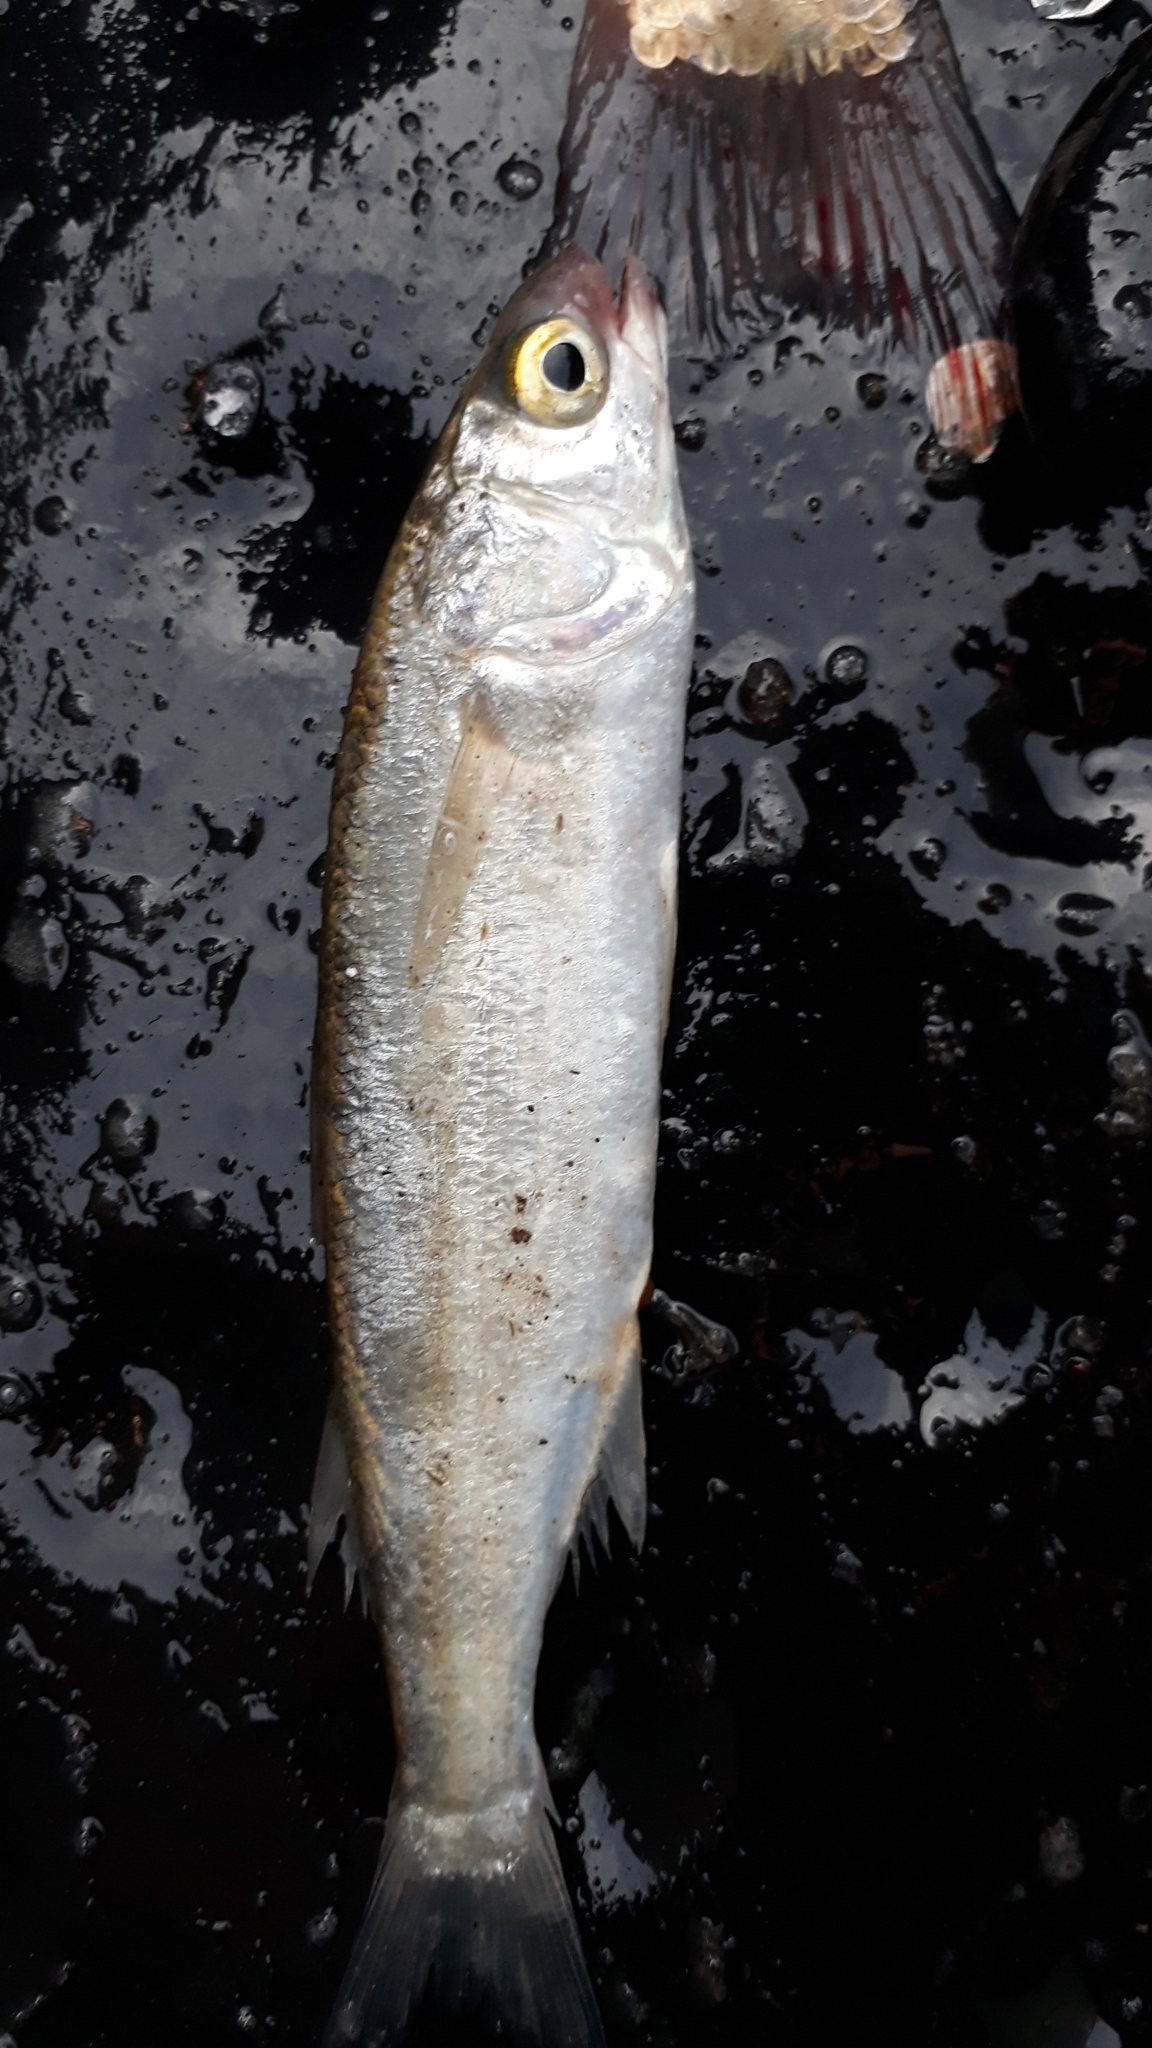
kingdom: Animalia
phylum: Chordata
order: Mugiliformes
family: Mugilidae
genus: Aldrichetta
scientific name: Aldrichetta forsteri
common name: Yellow-eye mullet
